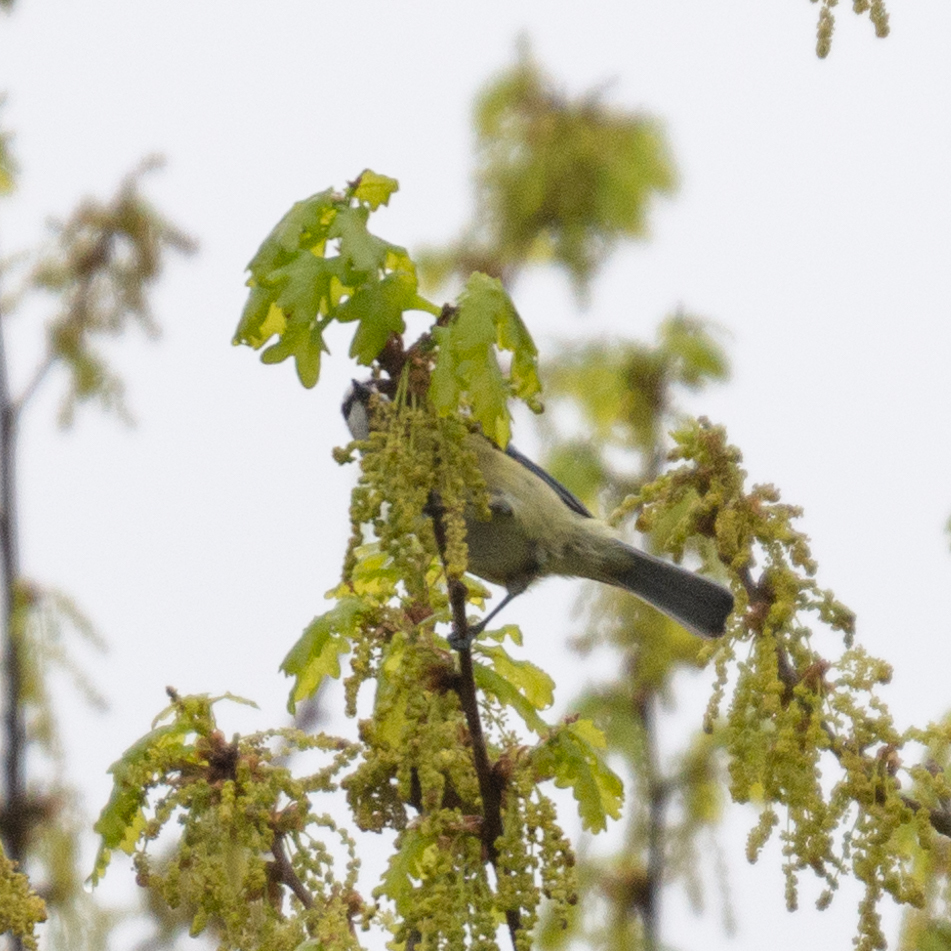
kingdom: Animalia
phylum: Chordata
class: Aves
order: Passeriformes
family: Paridae
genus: Cyanistes
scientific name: Cyanistes caeruleus
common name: Eurasian blue tit
